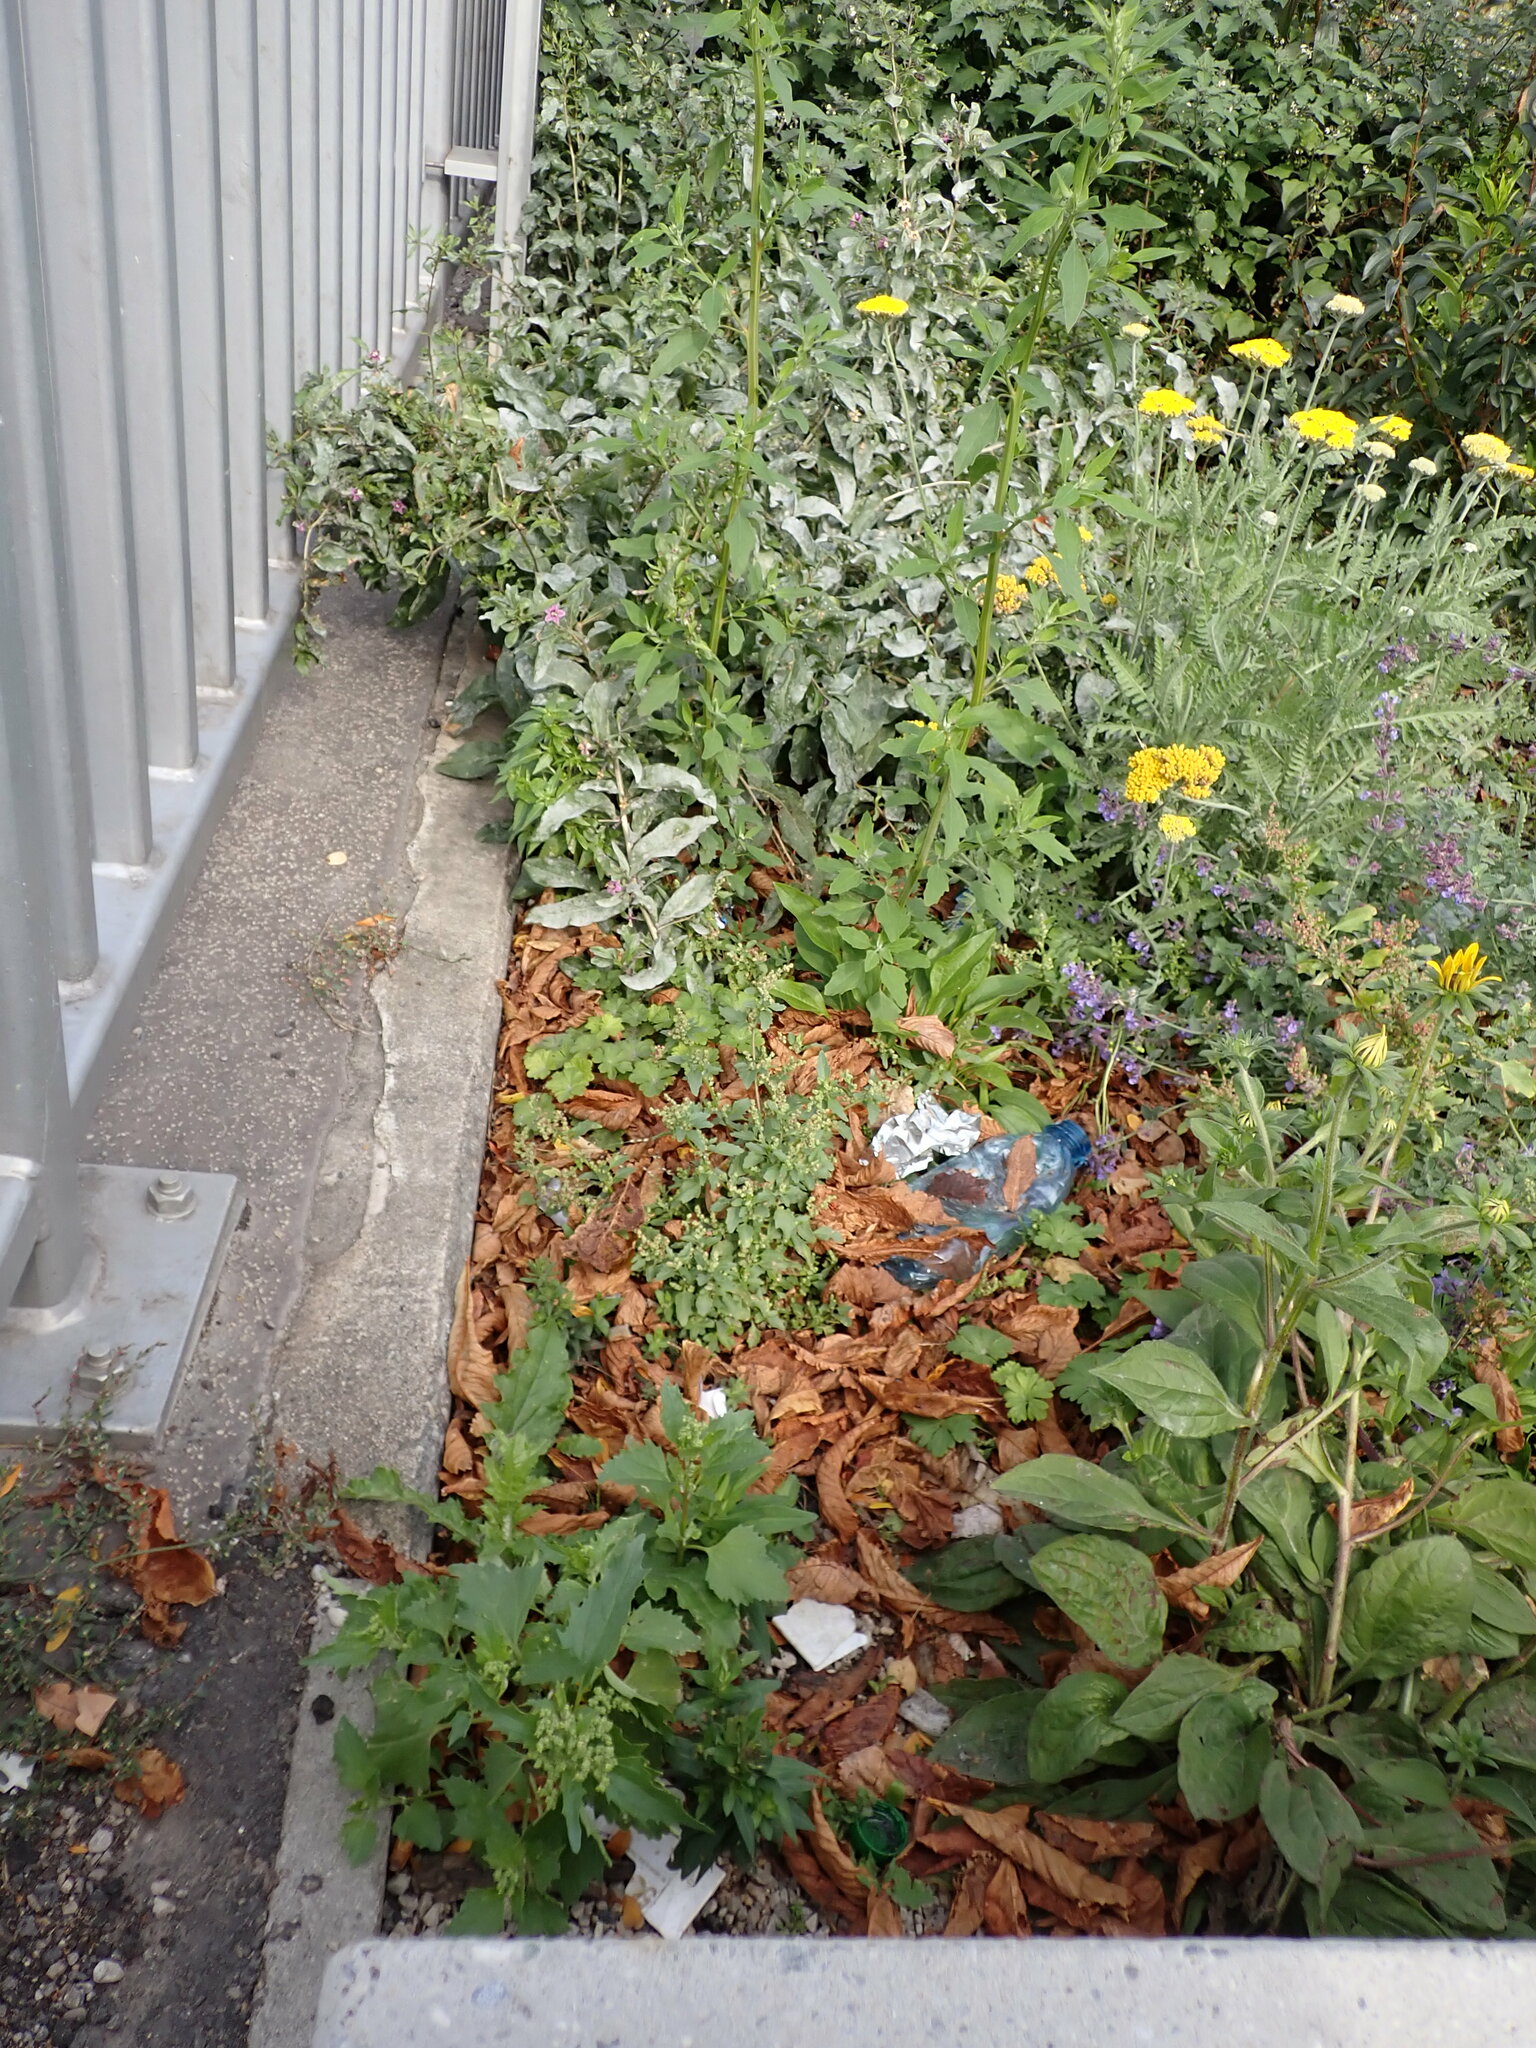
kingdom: Plantae
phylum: Tracheophyta
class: Magnoliopsida
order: Caryophyllales
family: Amaranthaceae
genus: Chenopodiastrum
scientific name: Chenopodiastrum murale
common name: Sowbane
